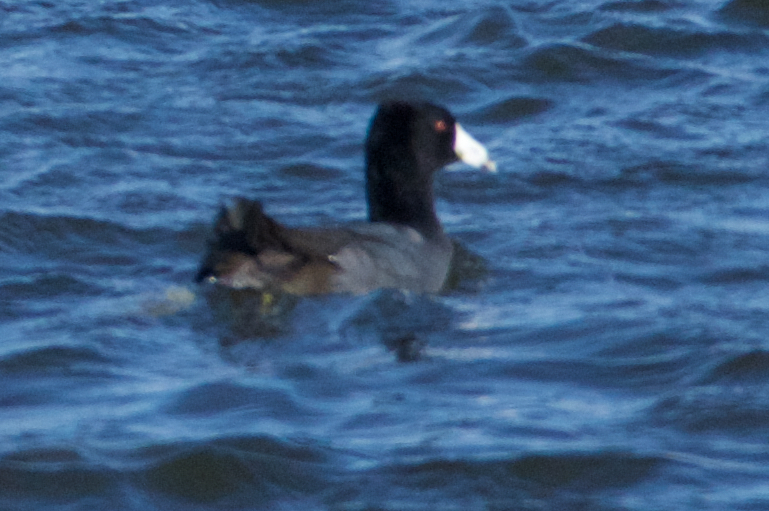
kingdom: Animalia
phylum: Chordata
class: Aves
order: Gruiformes
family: Rallidae
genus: Fulica
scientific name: Fulica americana
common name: American coot
